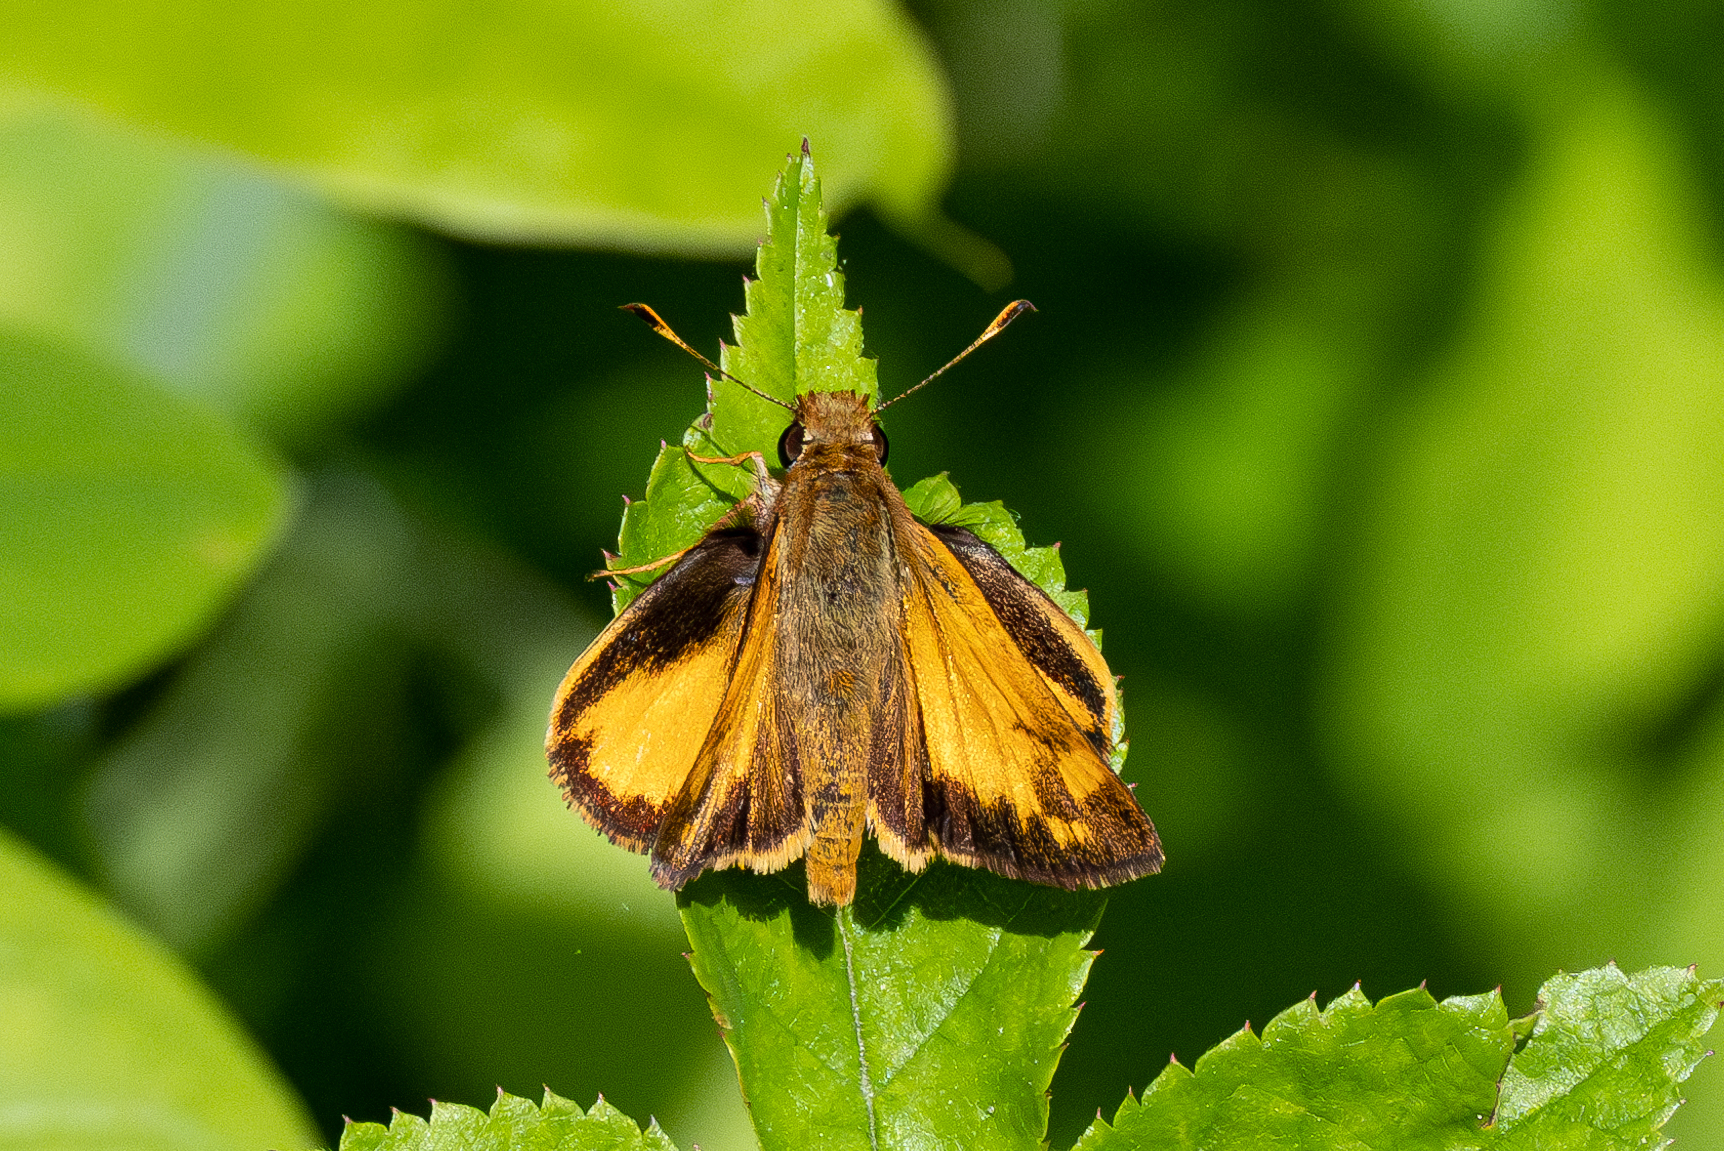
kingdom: Animalia
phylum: Arthropoda
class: Insecta
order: Lepidoptera
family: Hesperiidae
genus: Lon
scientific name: Lon zabulon
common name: Zabulon skipper
